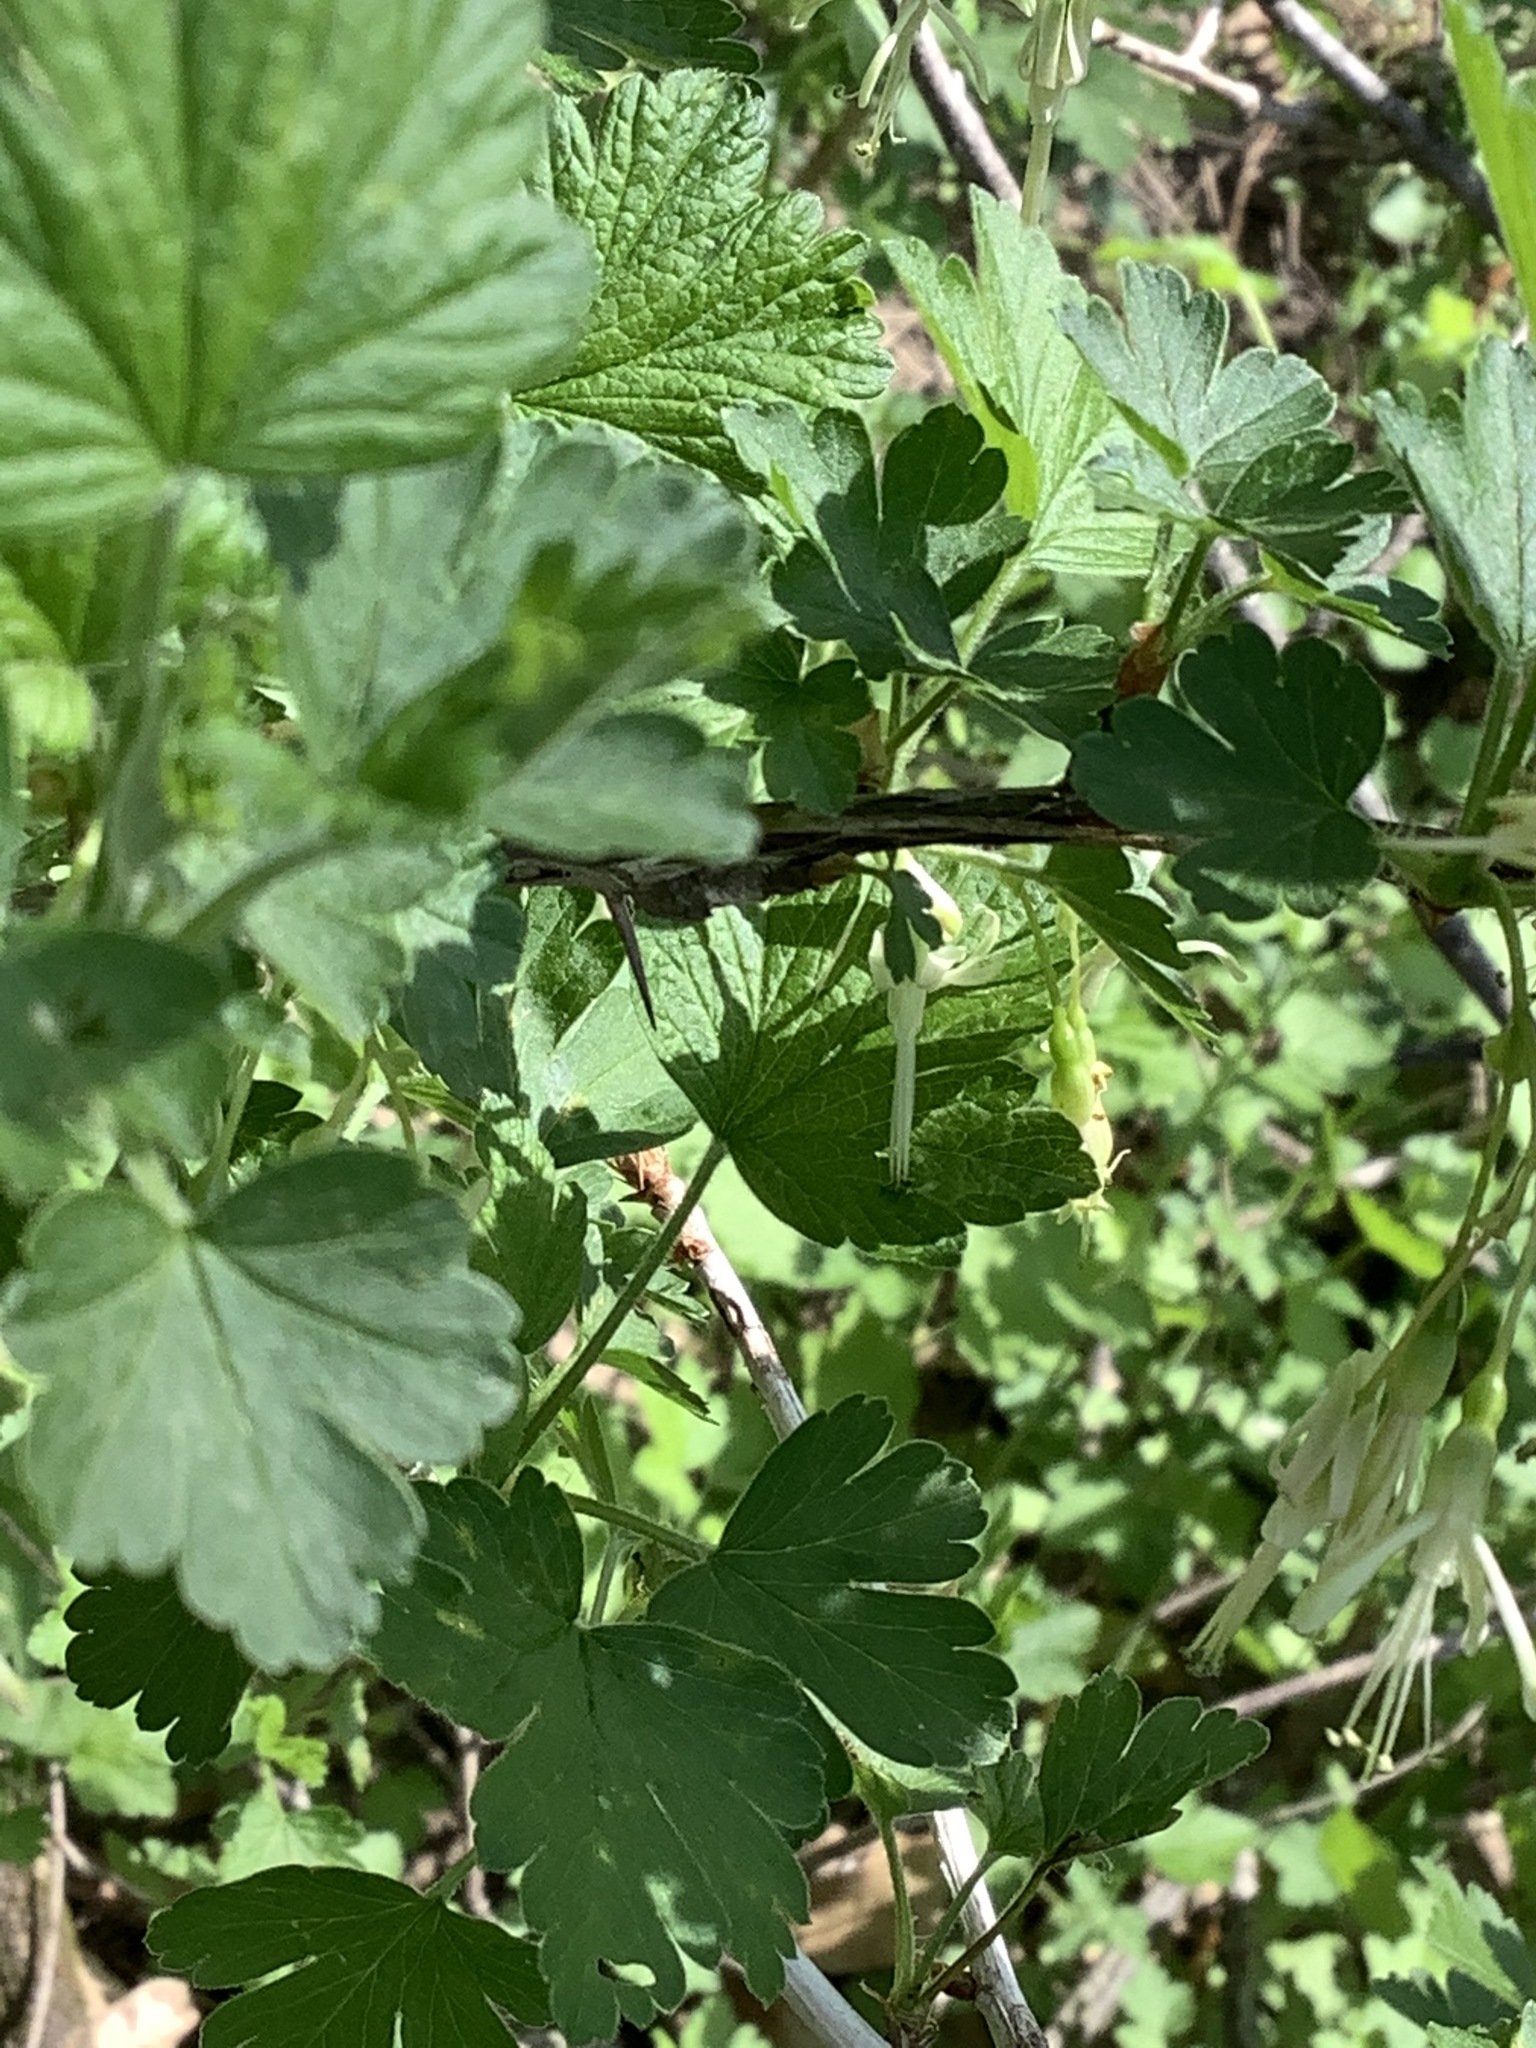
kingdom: Plantae
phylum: Tracheophyta
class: Magnoliopsida
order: Saxifragales
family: Grossulariaceae
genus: Ribes
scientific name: Ribes missouriense
